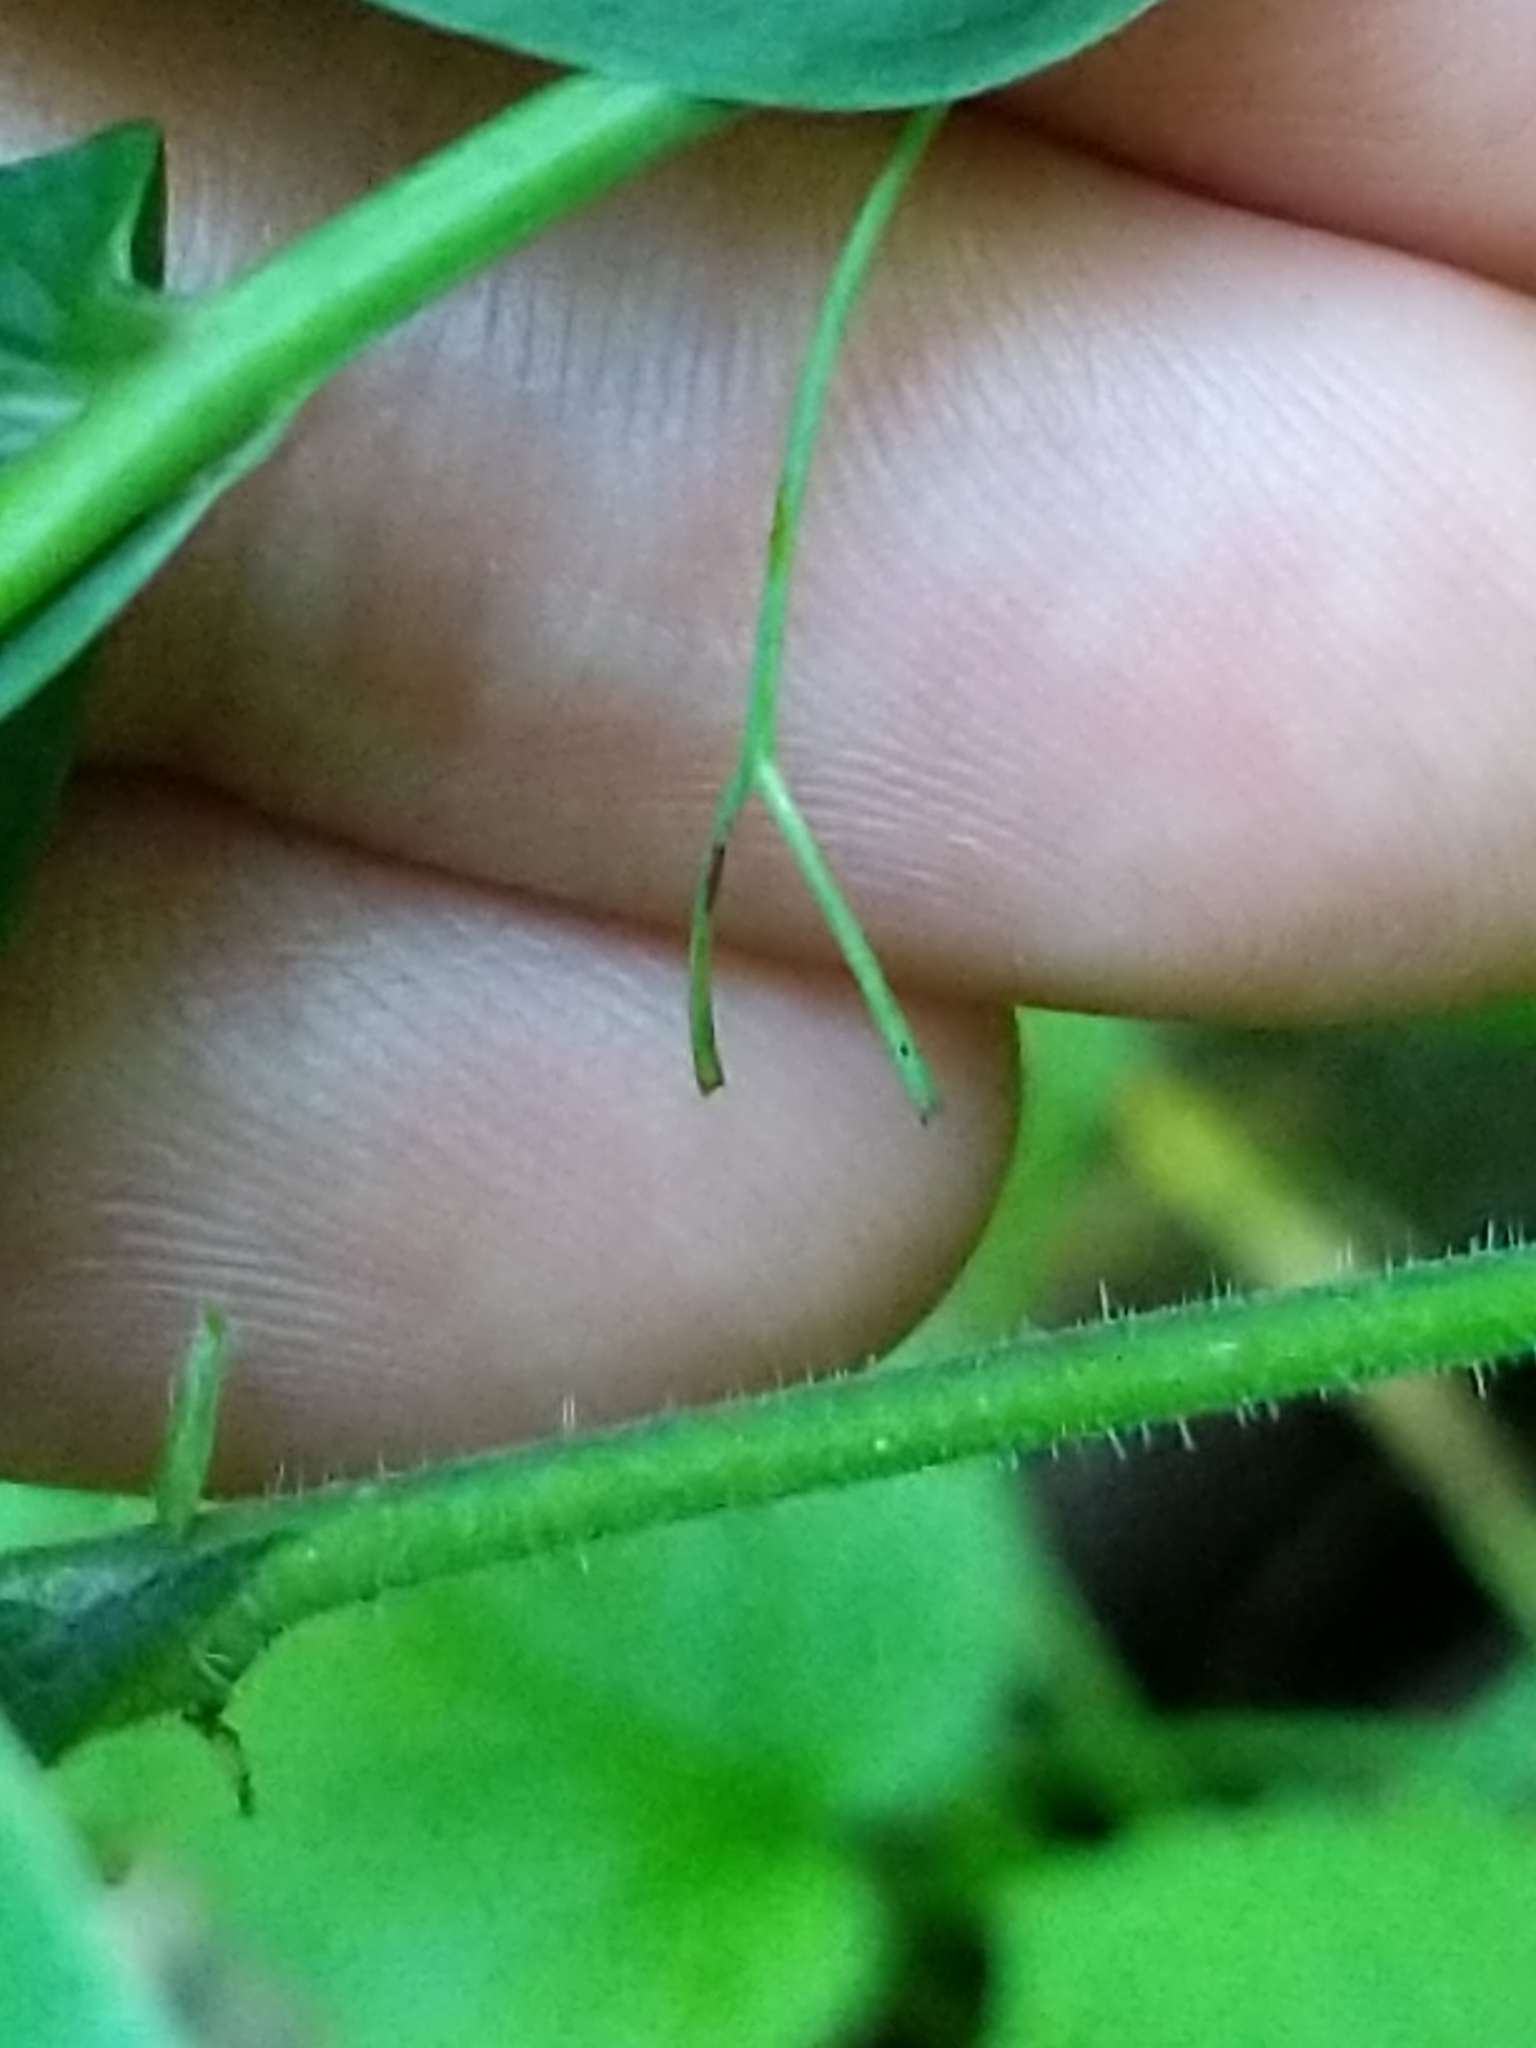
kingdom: Plantae
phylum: Tracheophyta
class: Liliopsida
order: Asparagales
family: Asparagaceae
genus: Polygonatum
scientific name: Polygonatum biflorum
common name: American solomon's-seal
